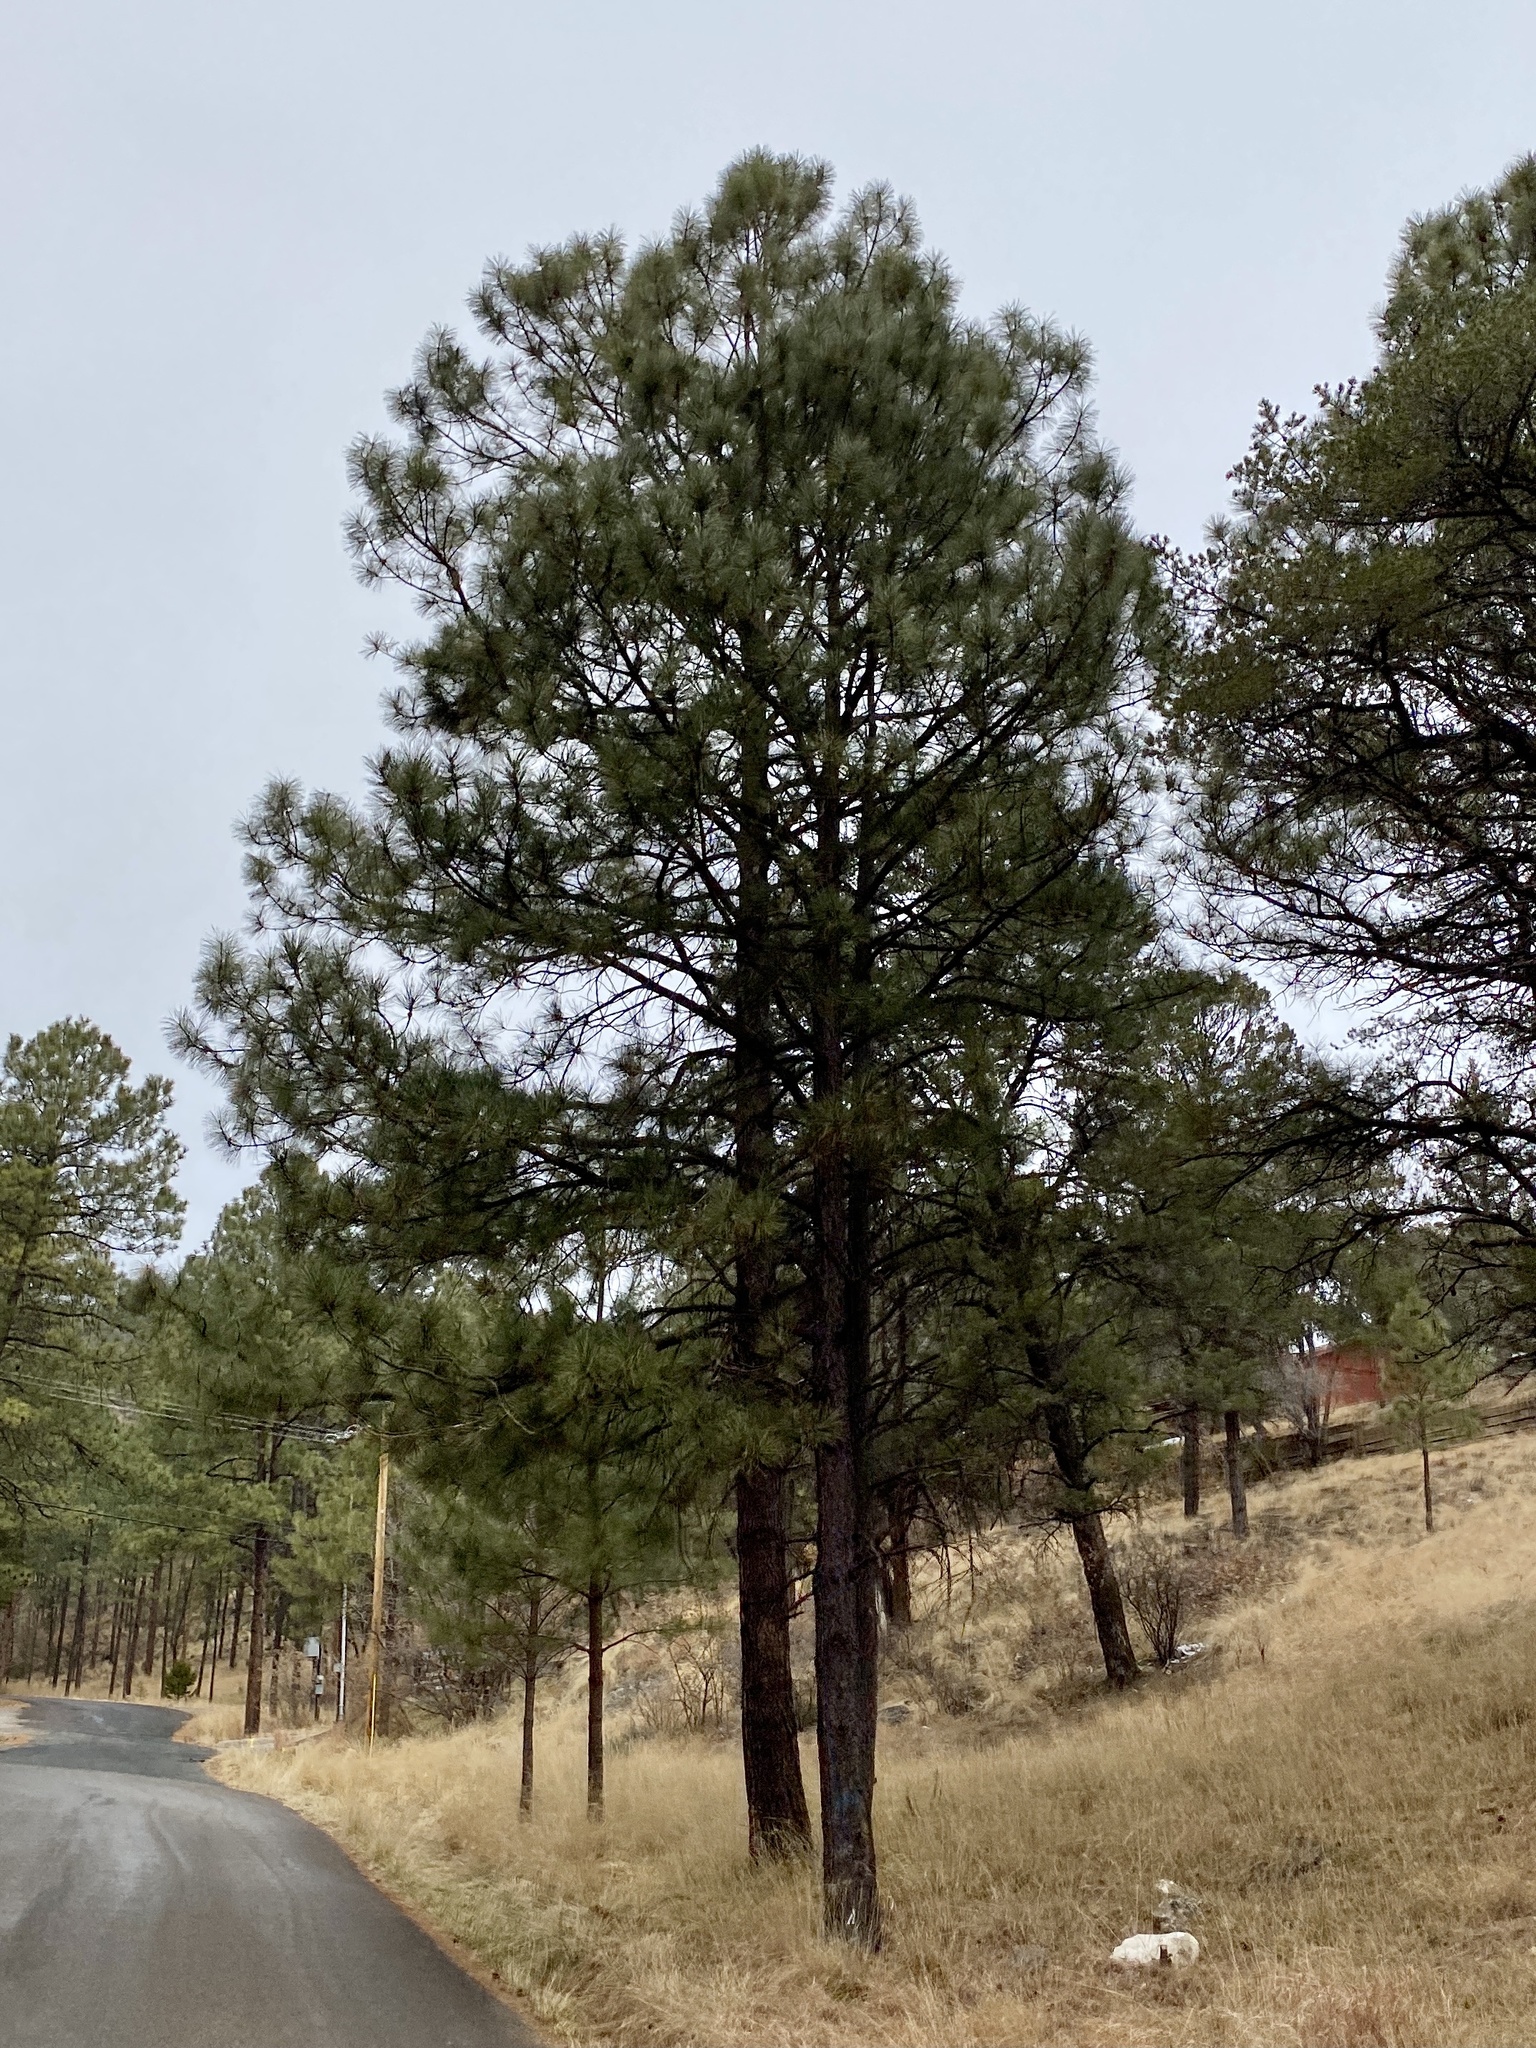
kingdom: Plantae
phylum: Tracheophyta
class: Pinopsida
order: Pinales
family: Pinaceae
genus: Pinus
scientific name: Pinus ponderosa
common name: Western yellow-pine
